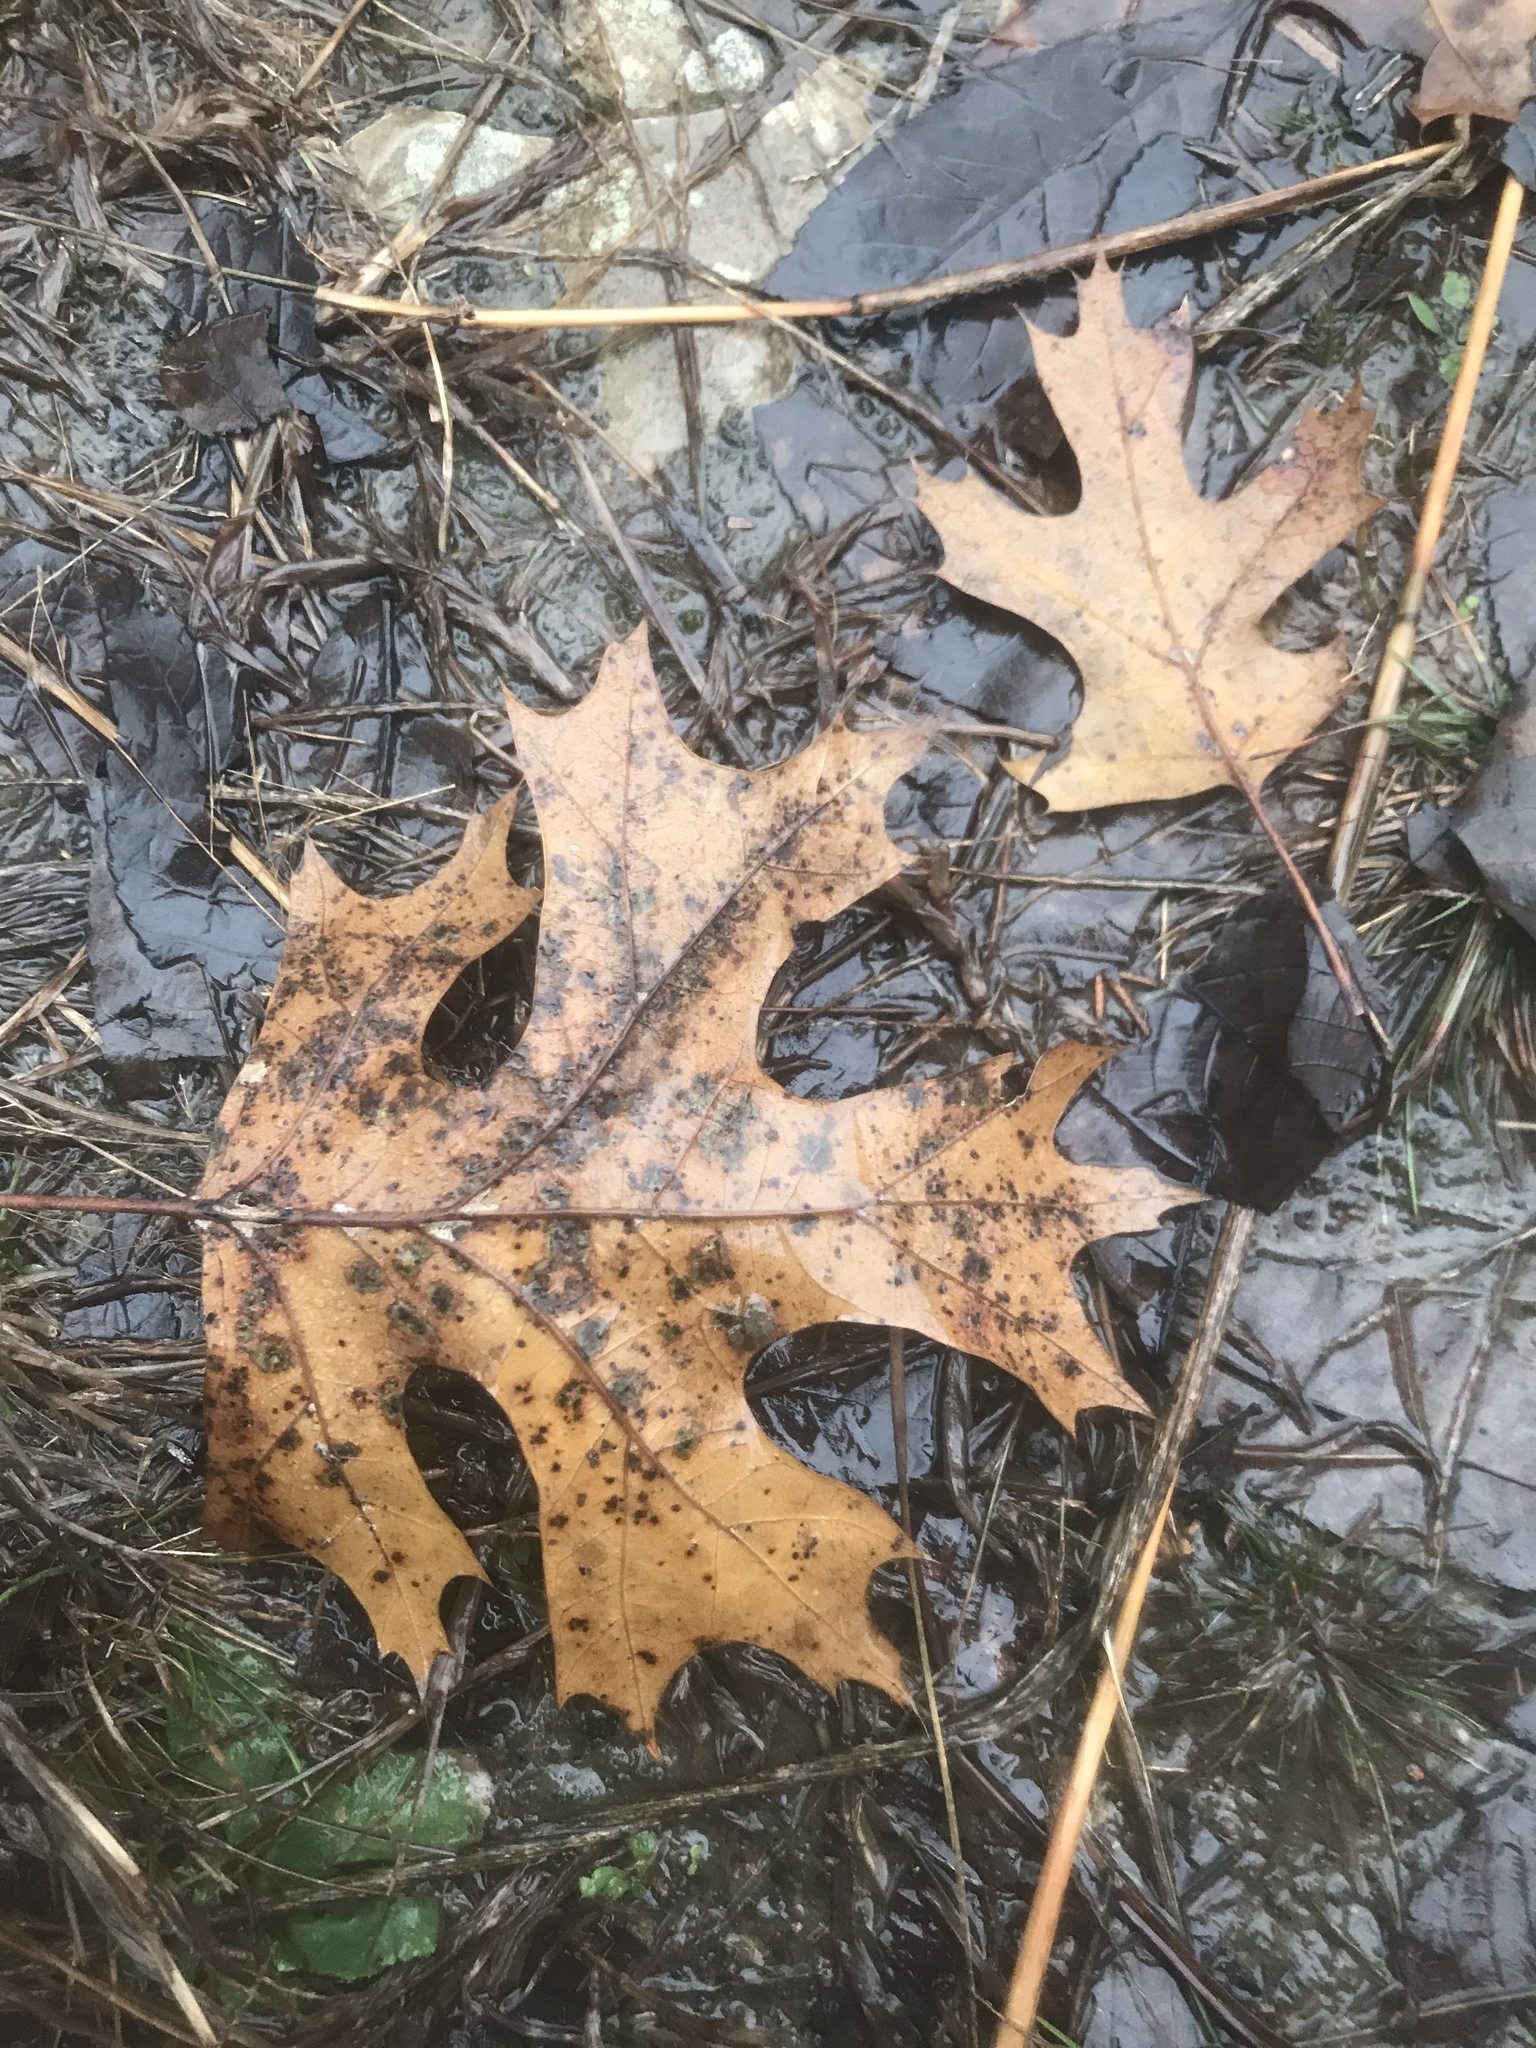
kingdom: Plantae
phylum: Tracheophyta
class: Magnoliopsida
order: Fagales
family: Fagaceae
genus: Quercus
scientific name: Quercus shumardii
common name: Shumard oak
